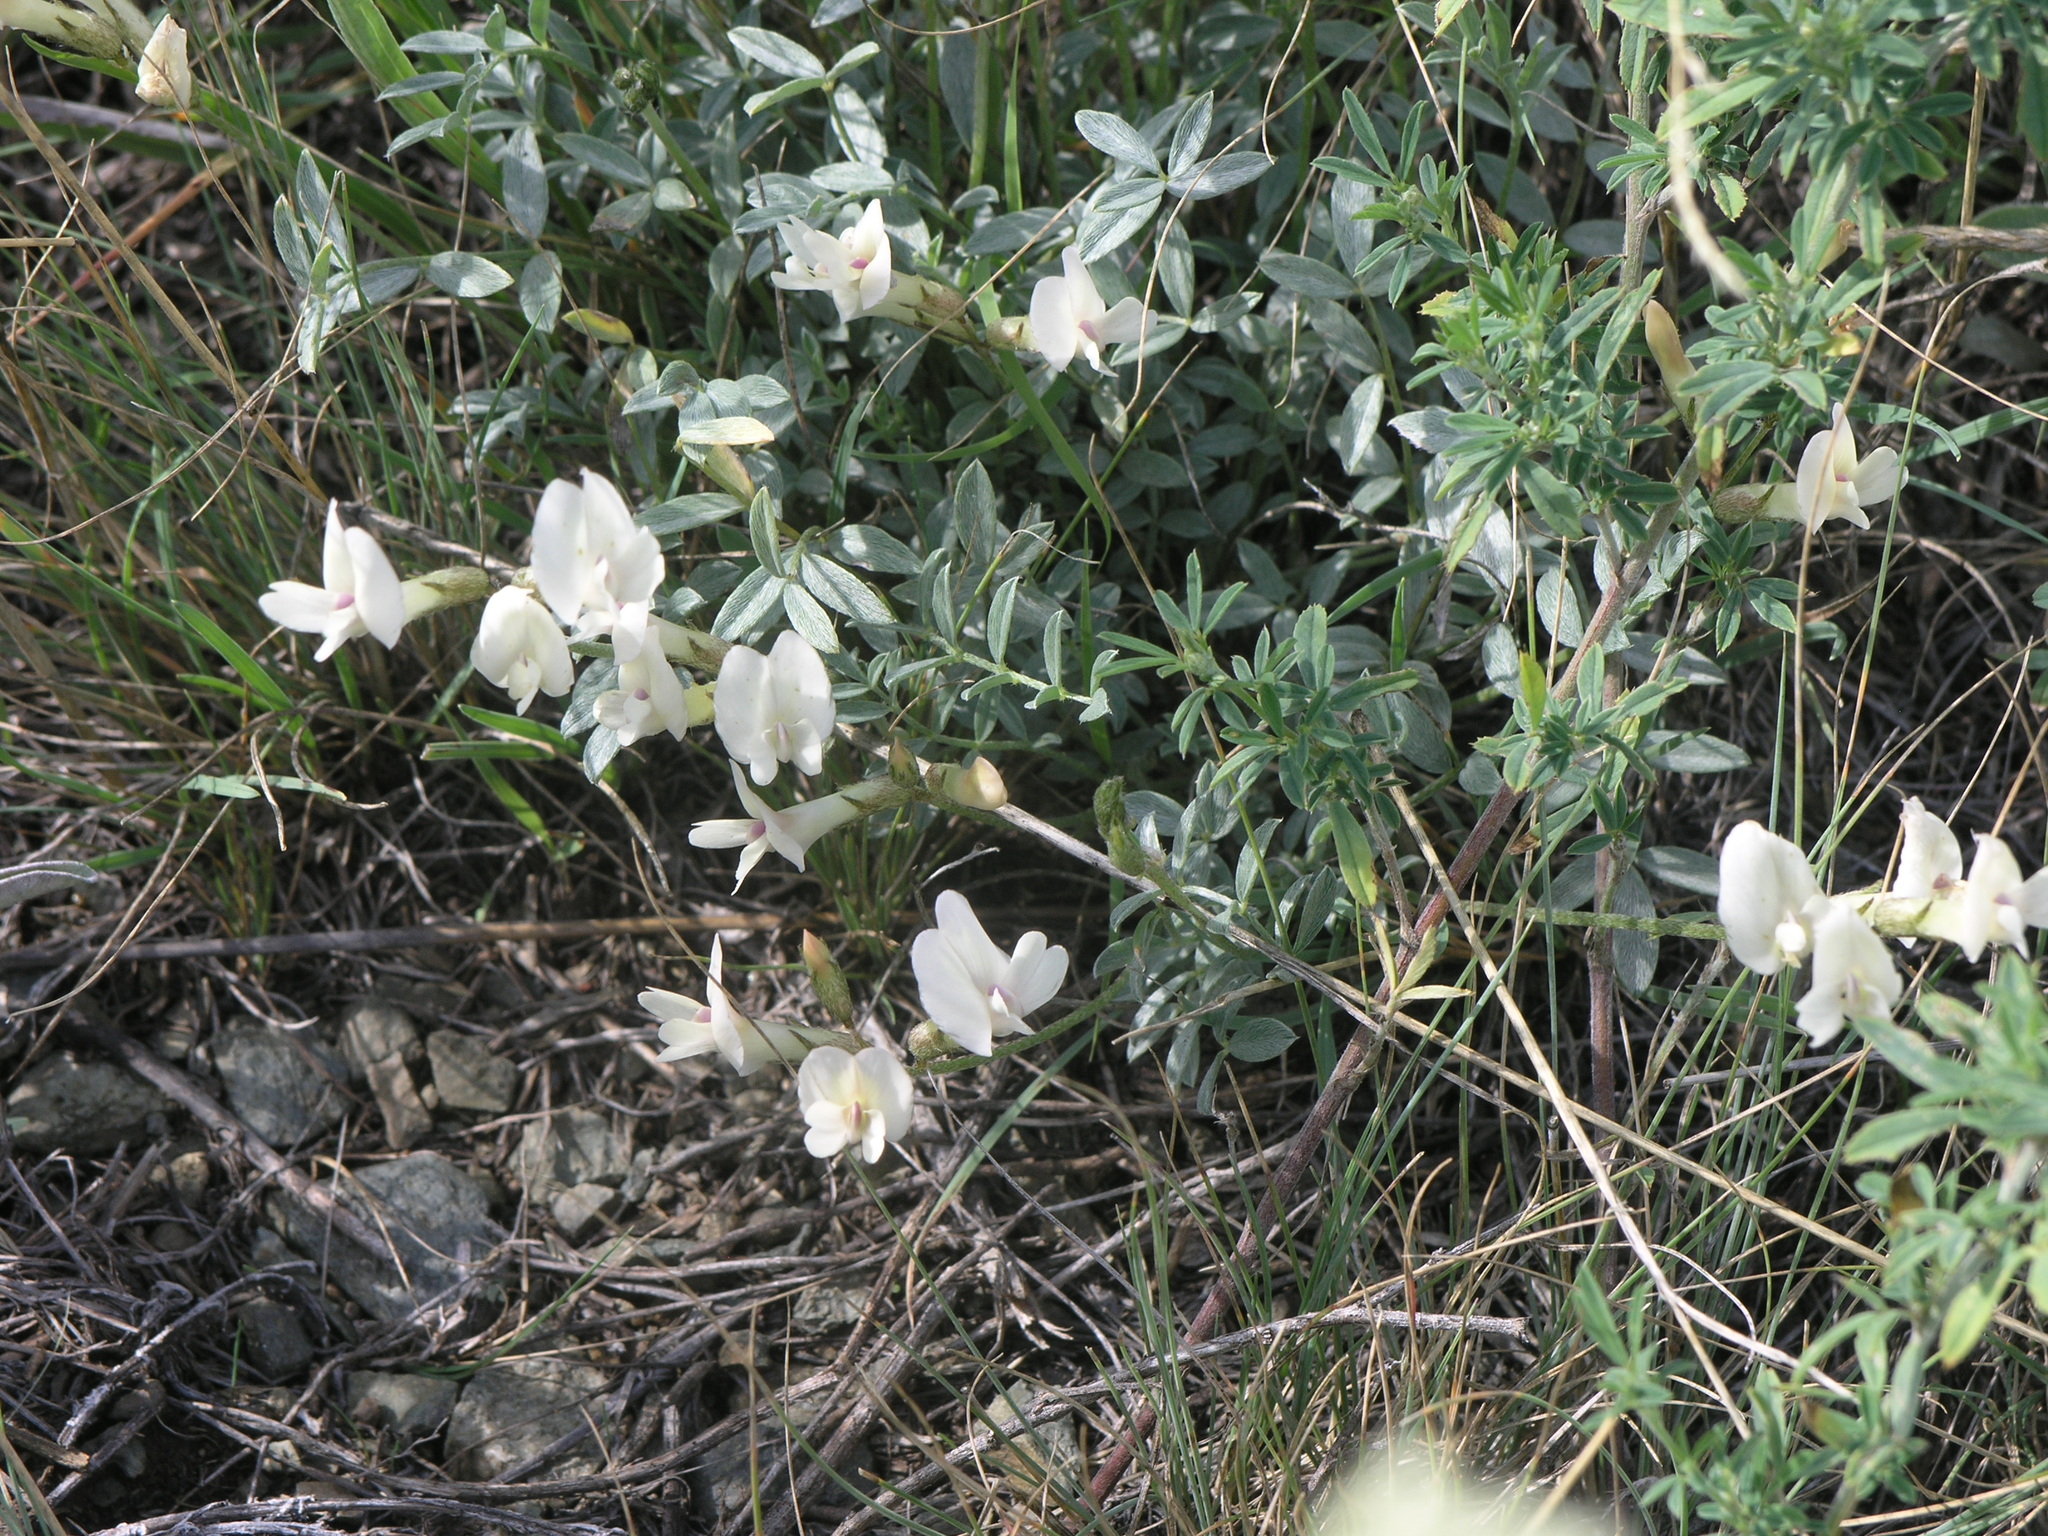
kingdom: Plantae
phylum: Tracheophyta
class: Magnoliopsida
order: Fabales
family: Fabaceae
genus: Astragalus
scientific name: Astragalus depauperatus
